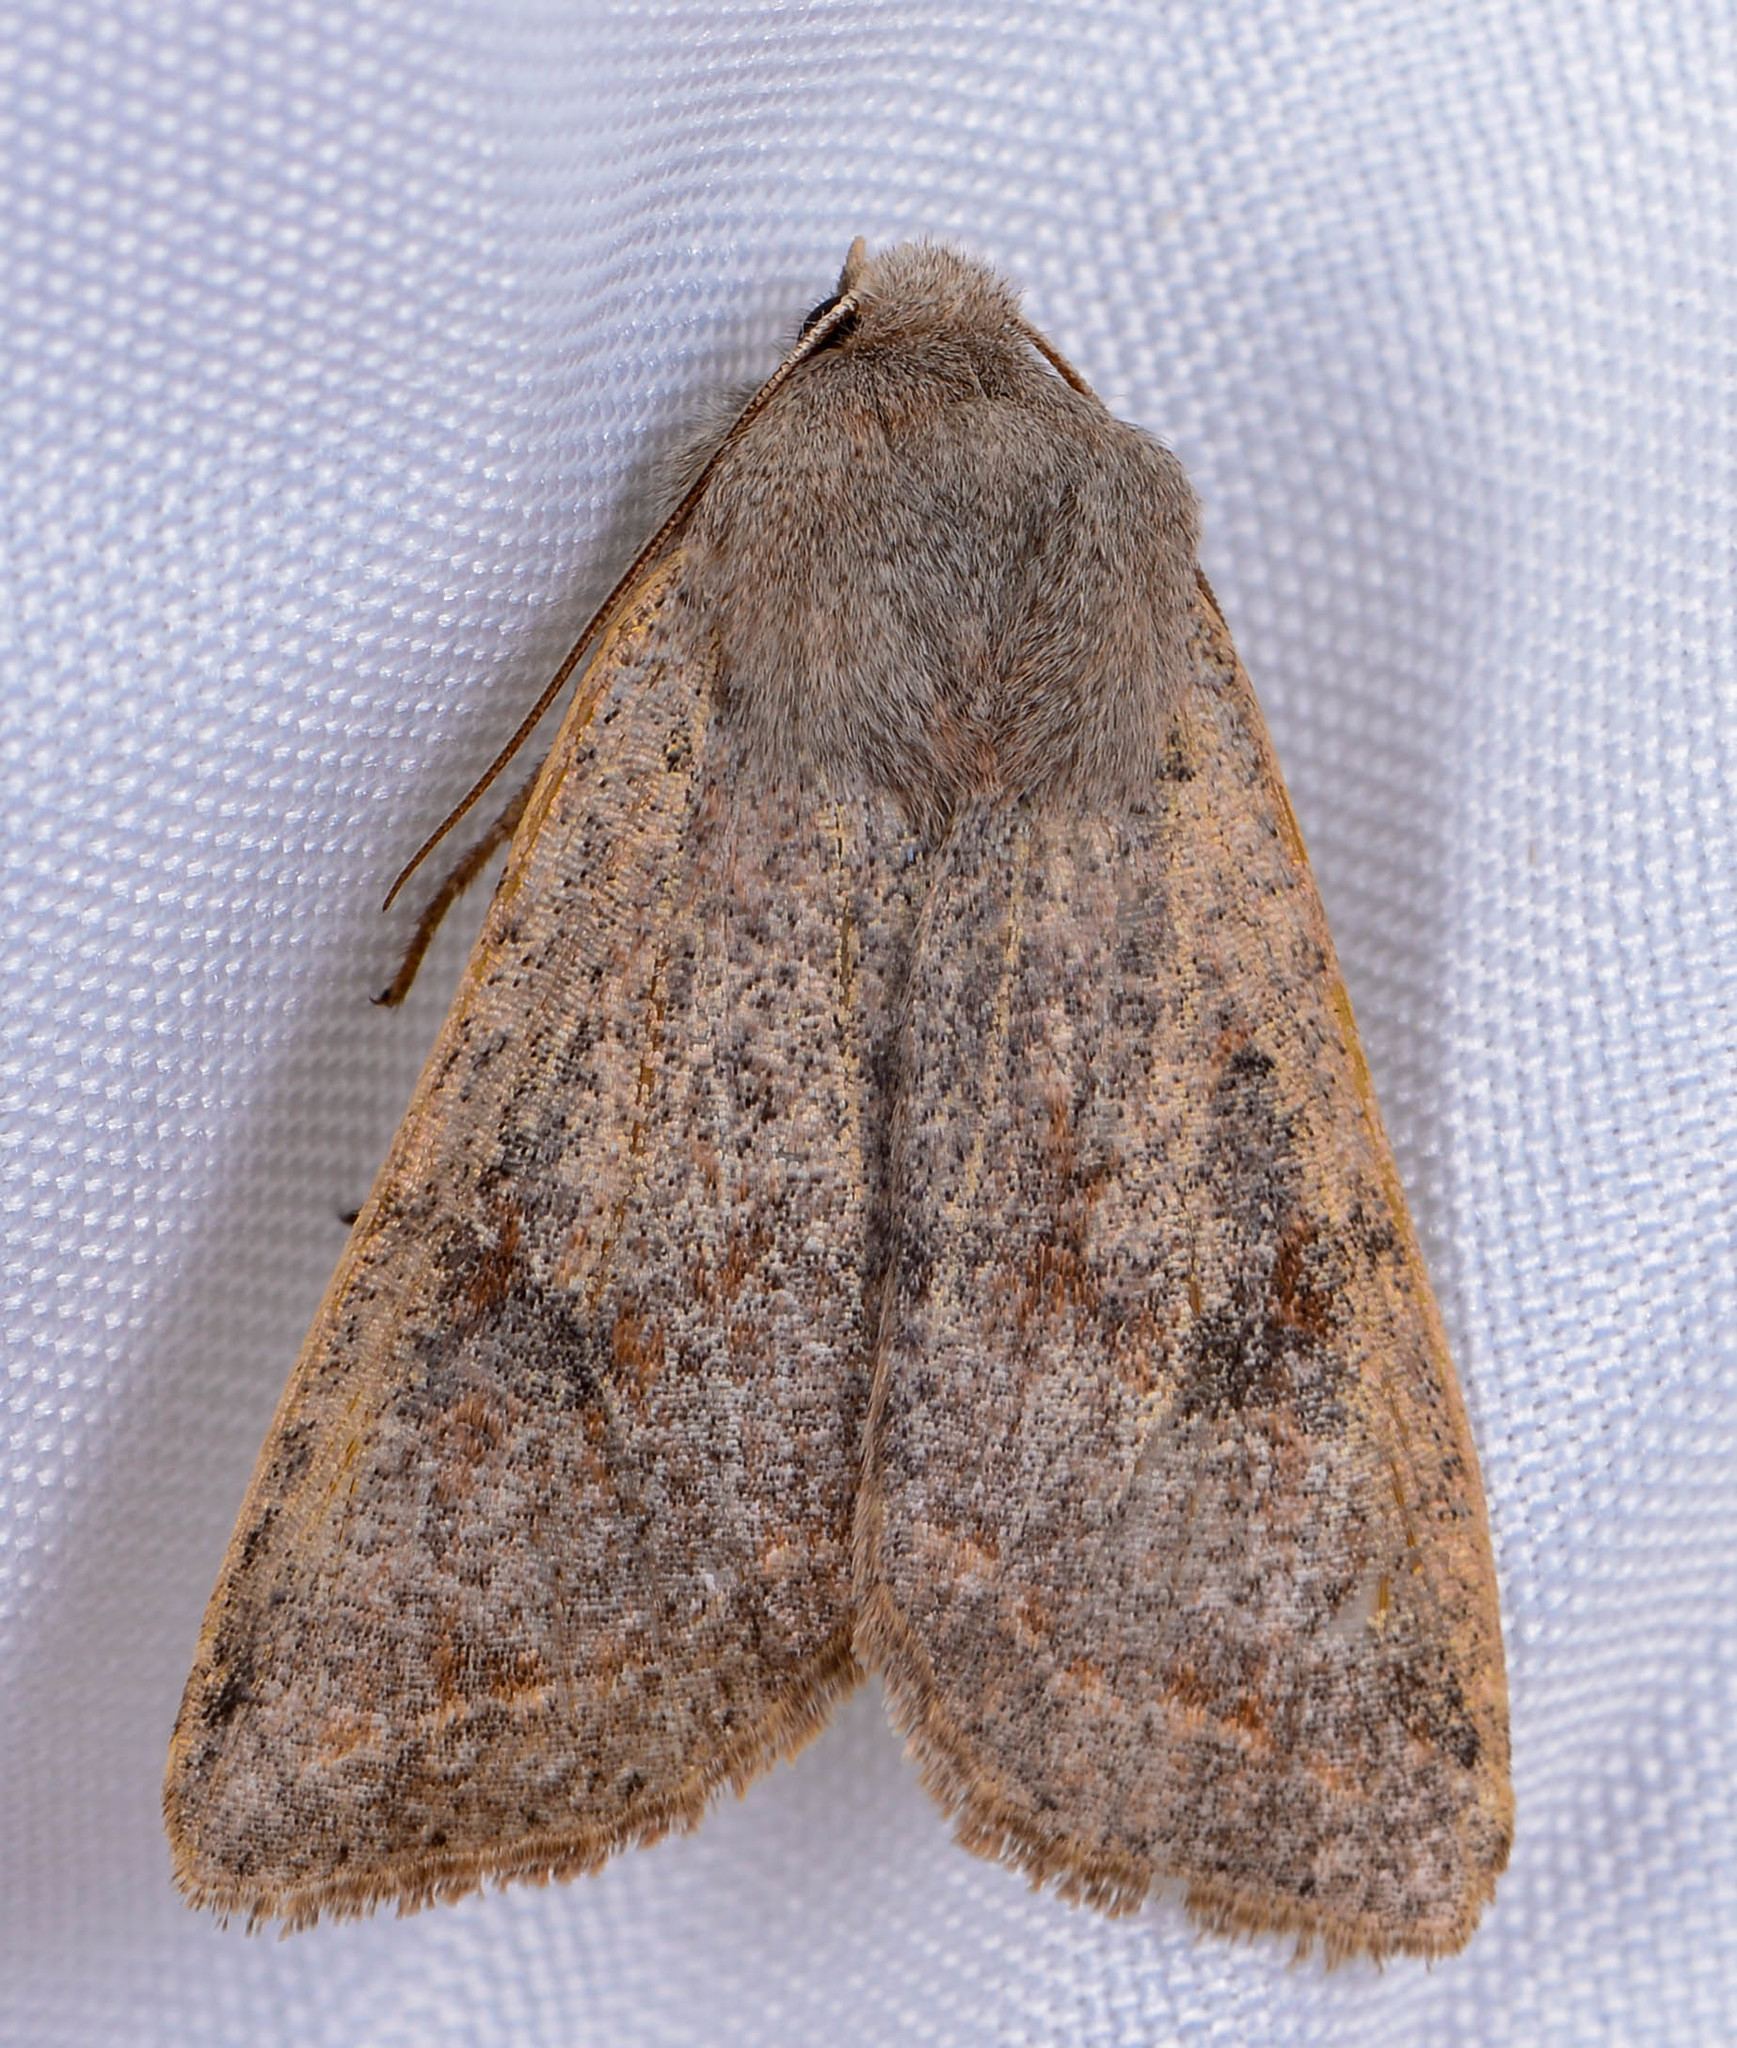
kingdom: Animalia
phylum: Arthropoda
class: Insecta
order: Lepidoptera
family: Noctuidae
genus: Orthosia
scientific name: Orthosia hibisci
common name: Green fruitworm
